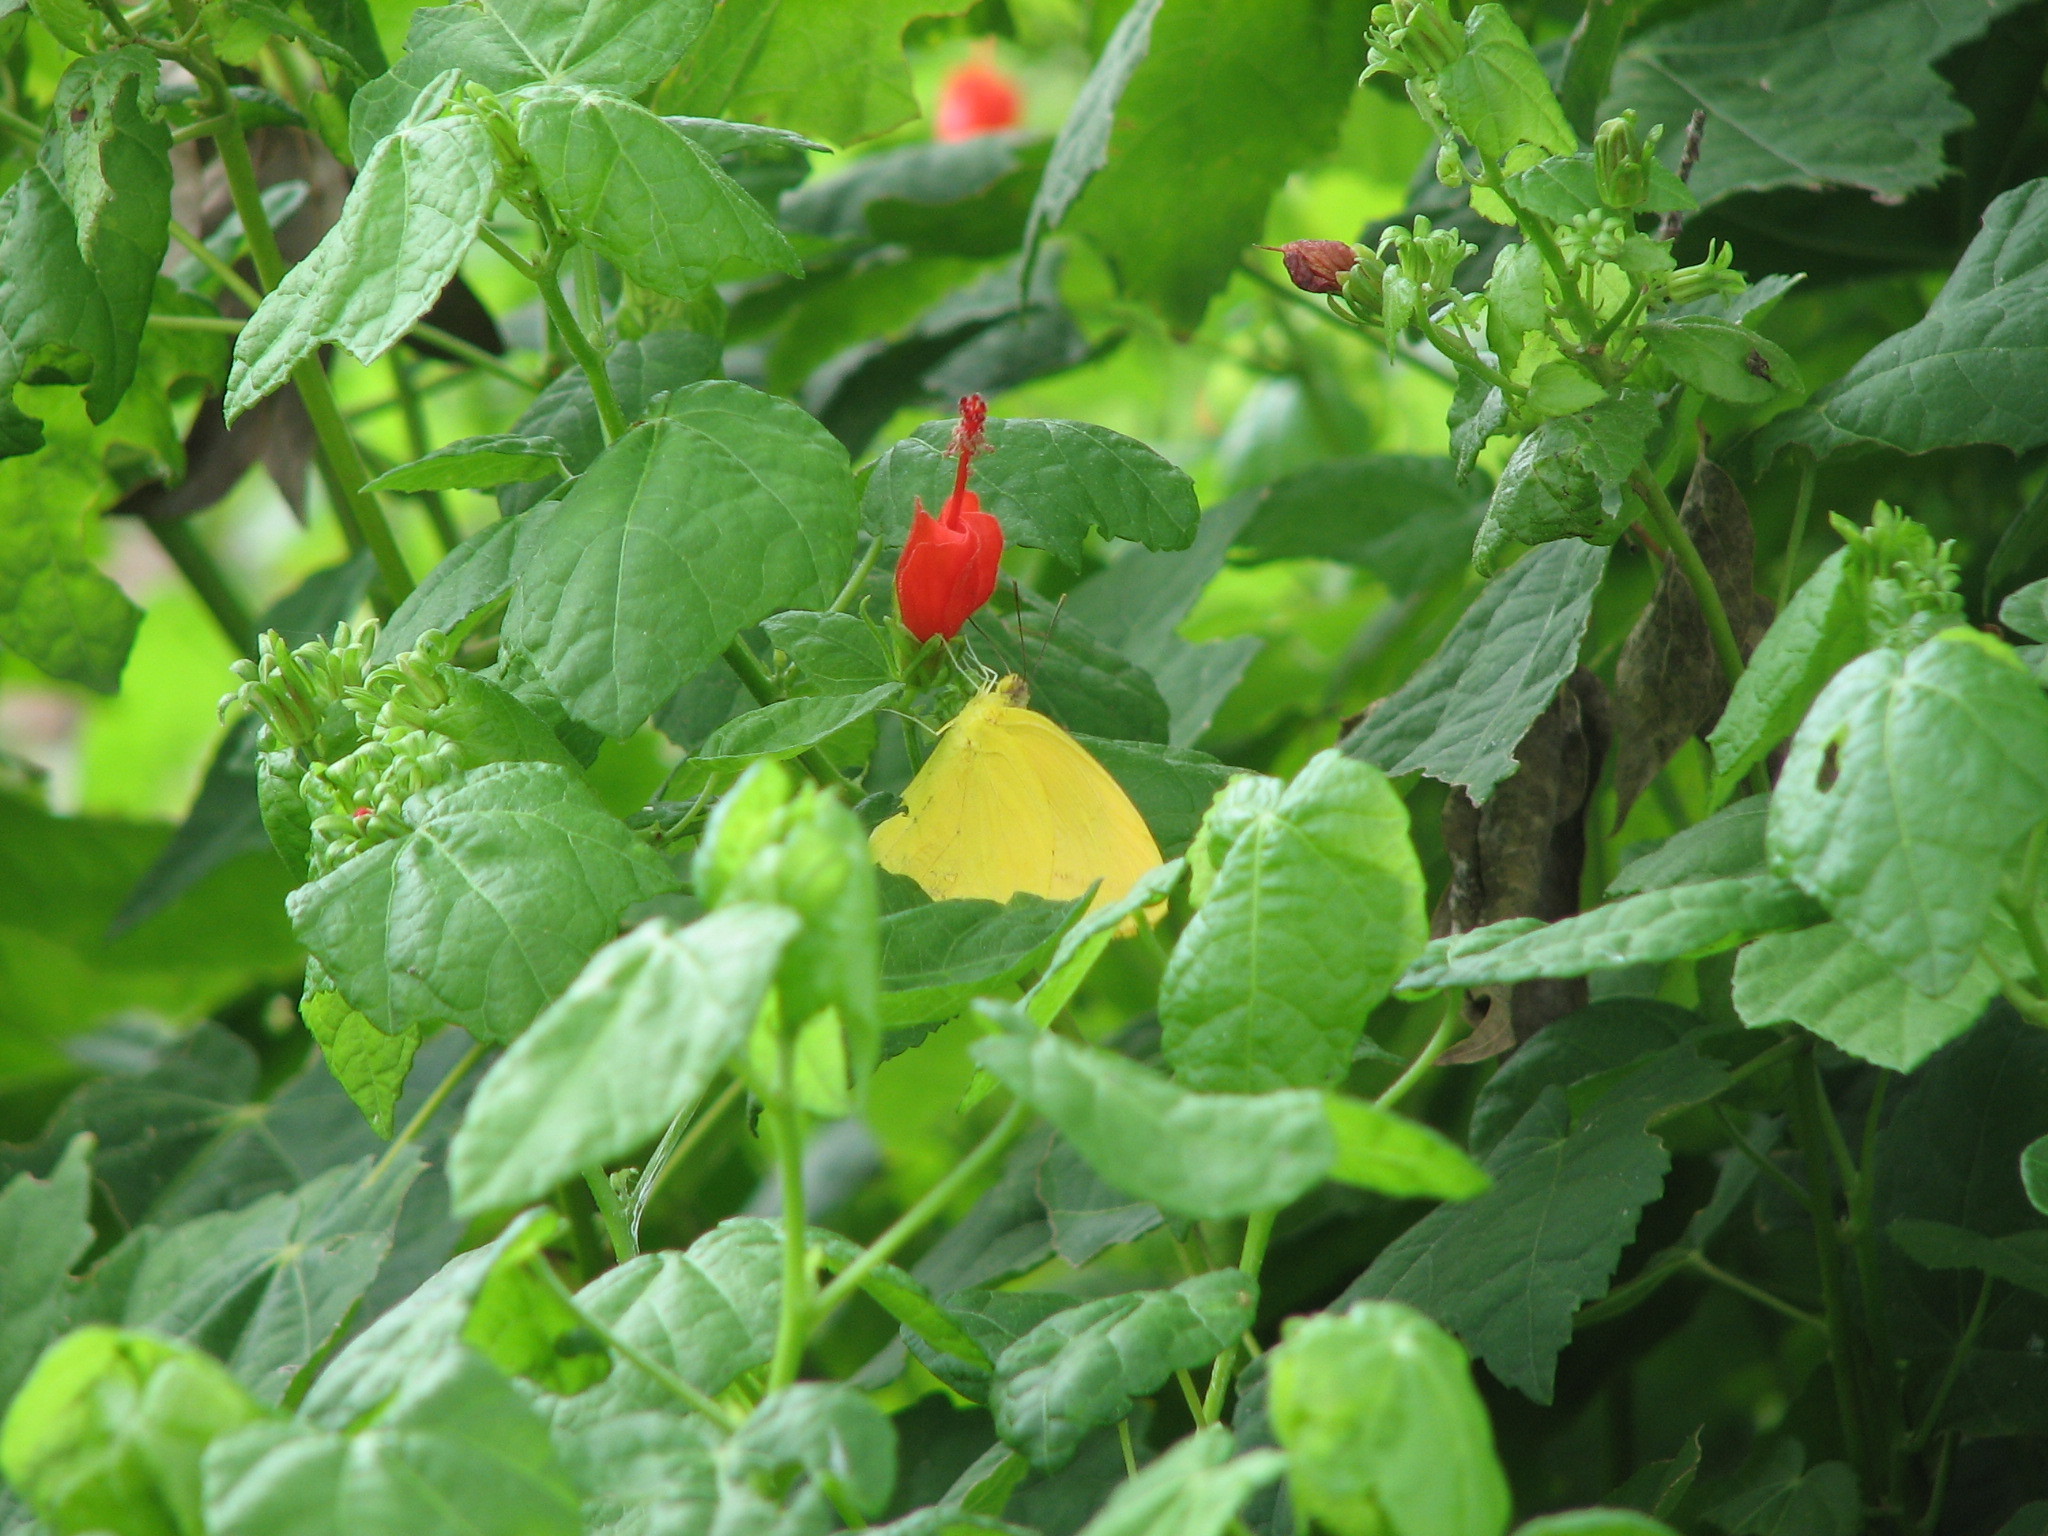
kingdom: Animalia
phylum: Arthropoda
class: Insecta
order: Lepidoptera
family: Pieridae
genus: Phoebis
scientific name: Phoebis agarithe
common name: Large orange sulphur
